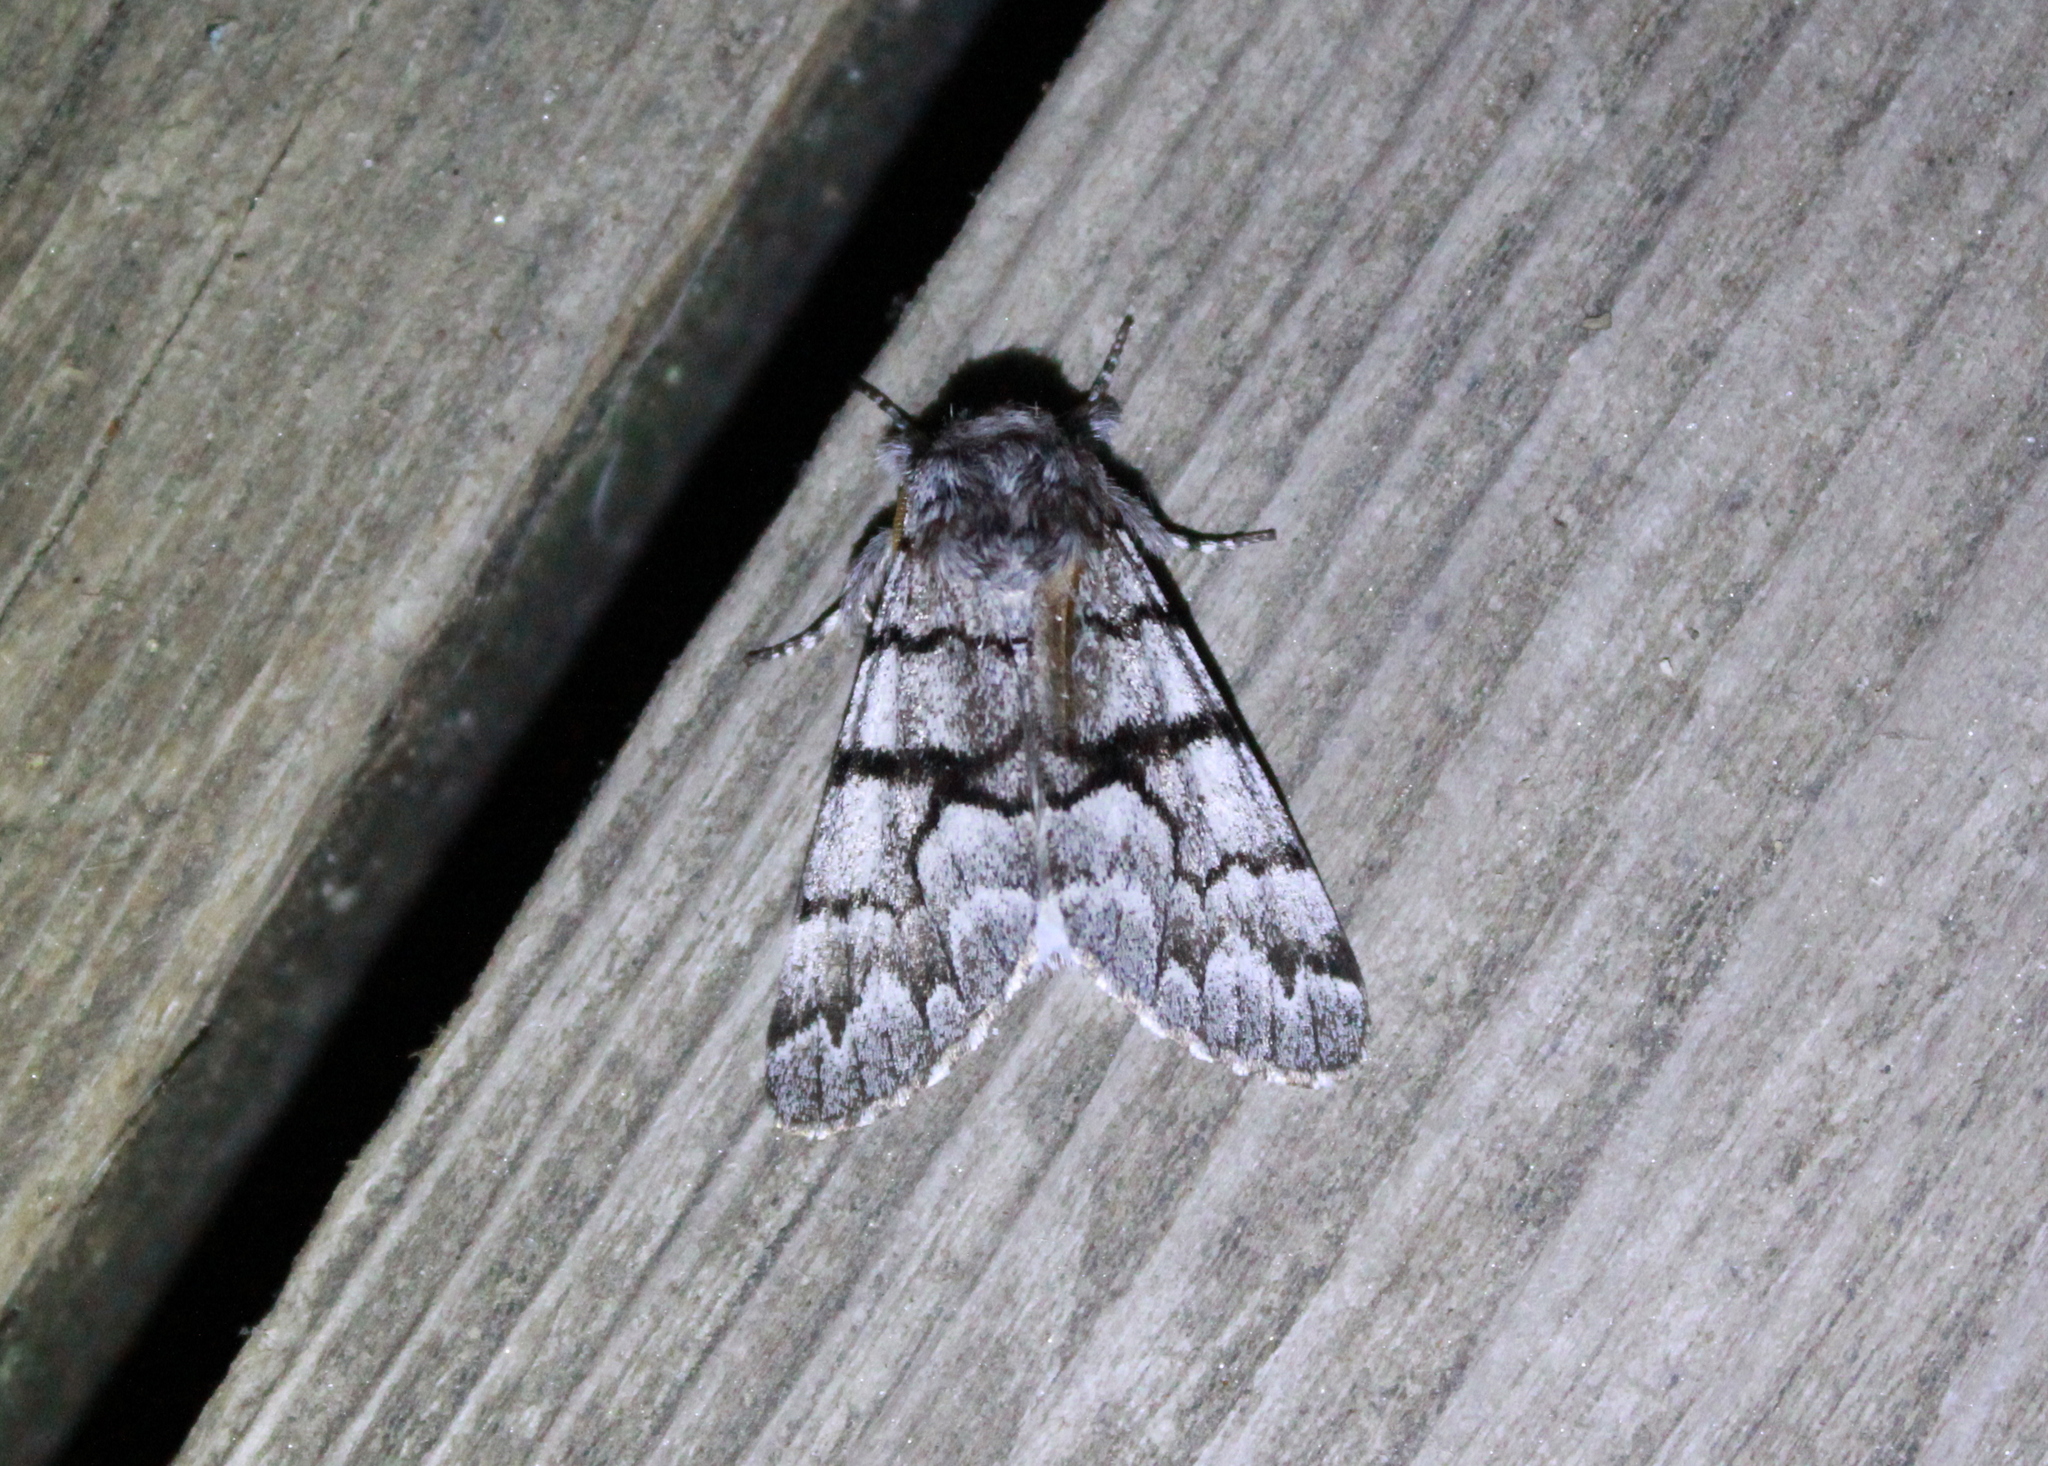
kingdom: Animalia
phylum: Arthropoda
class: Insecta
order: Lepidoptera
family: Noctuidae
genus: Panthea
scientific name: Panthea furcilla
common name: Eastern panthea moth
